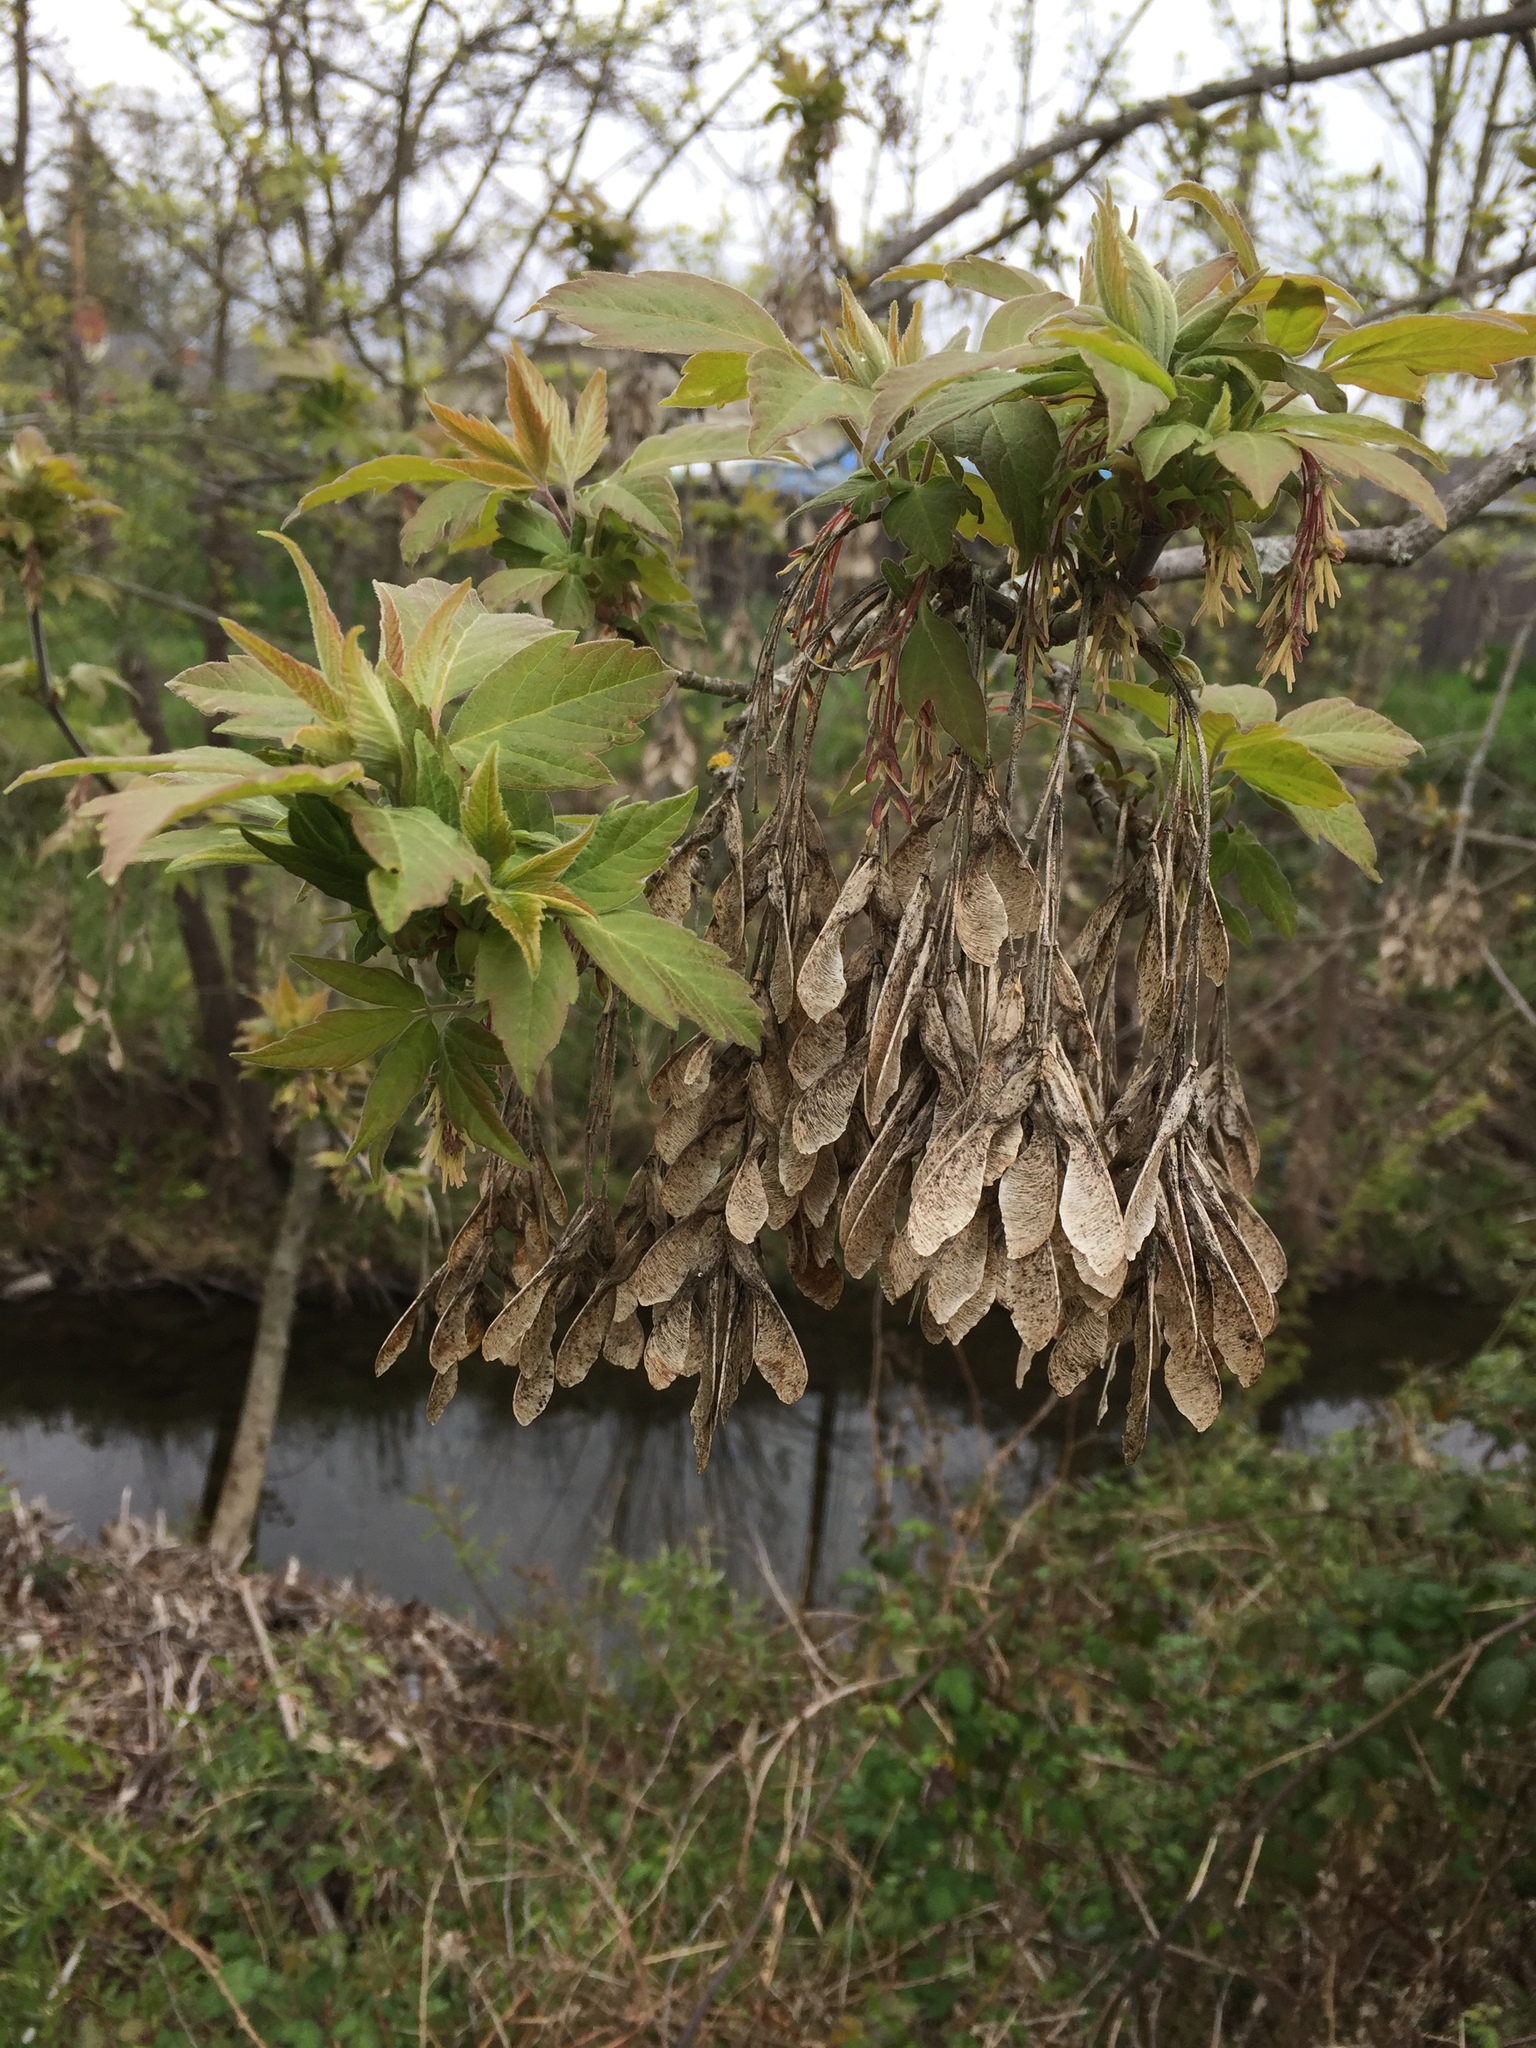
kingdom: Plantae
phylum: Tracheophyta
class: Magnoliopsida
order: Sapindales
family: Sapindaceae
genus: Acer
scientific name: Acer negundo
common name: Ashleaf maple
